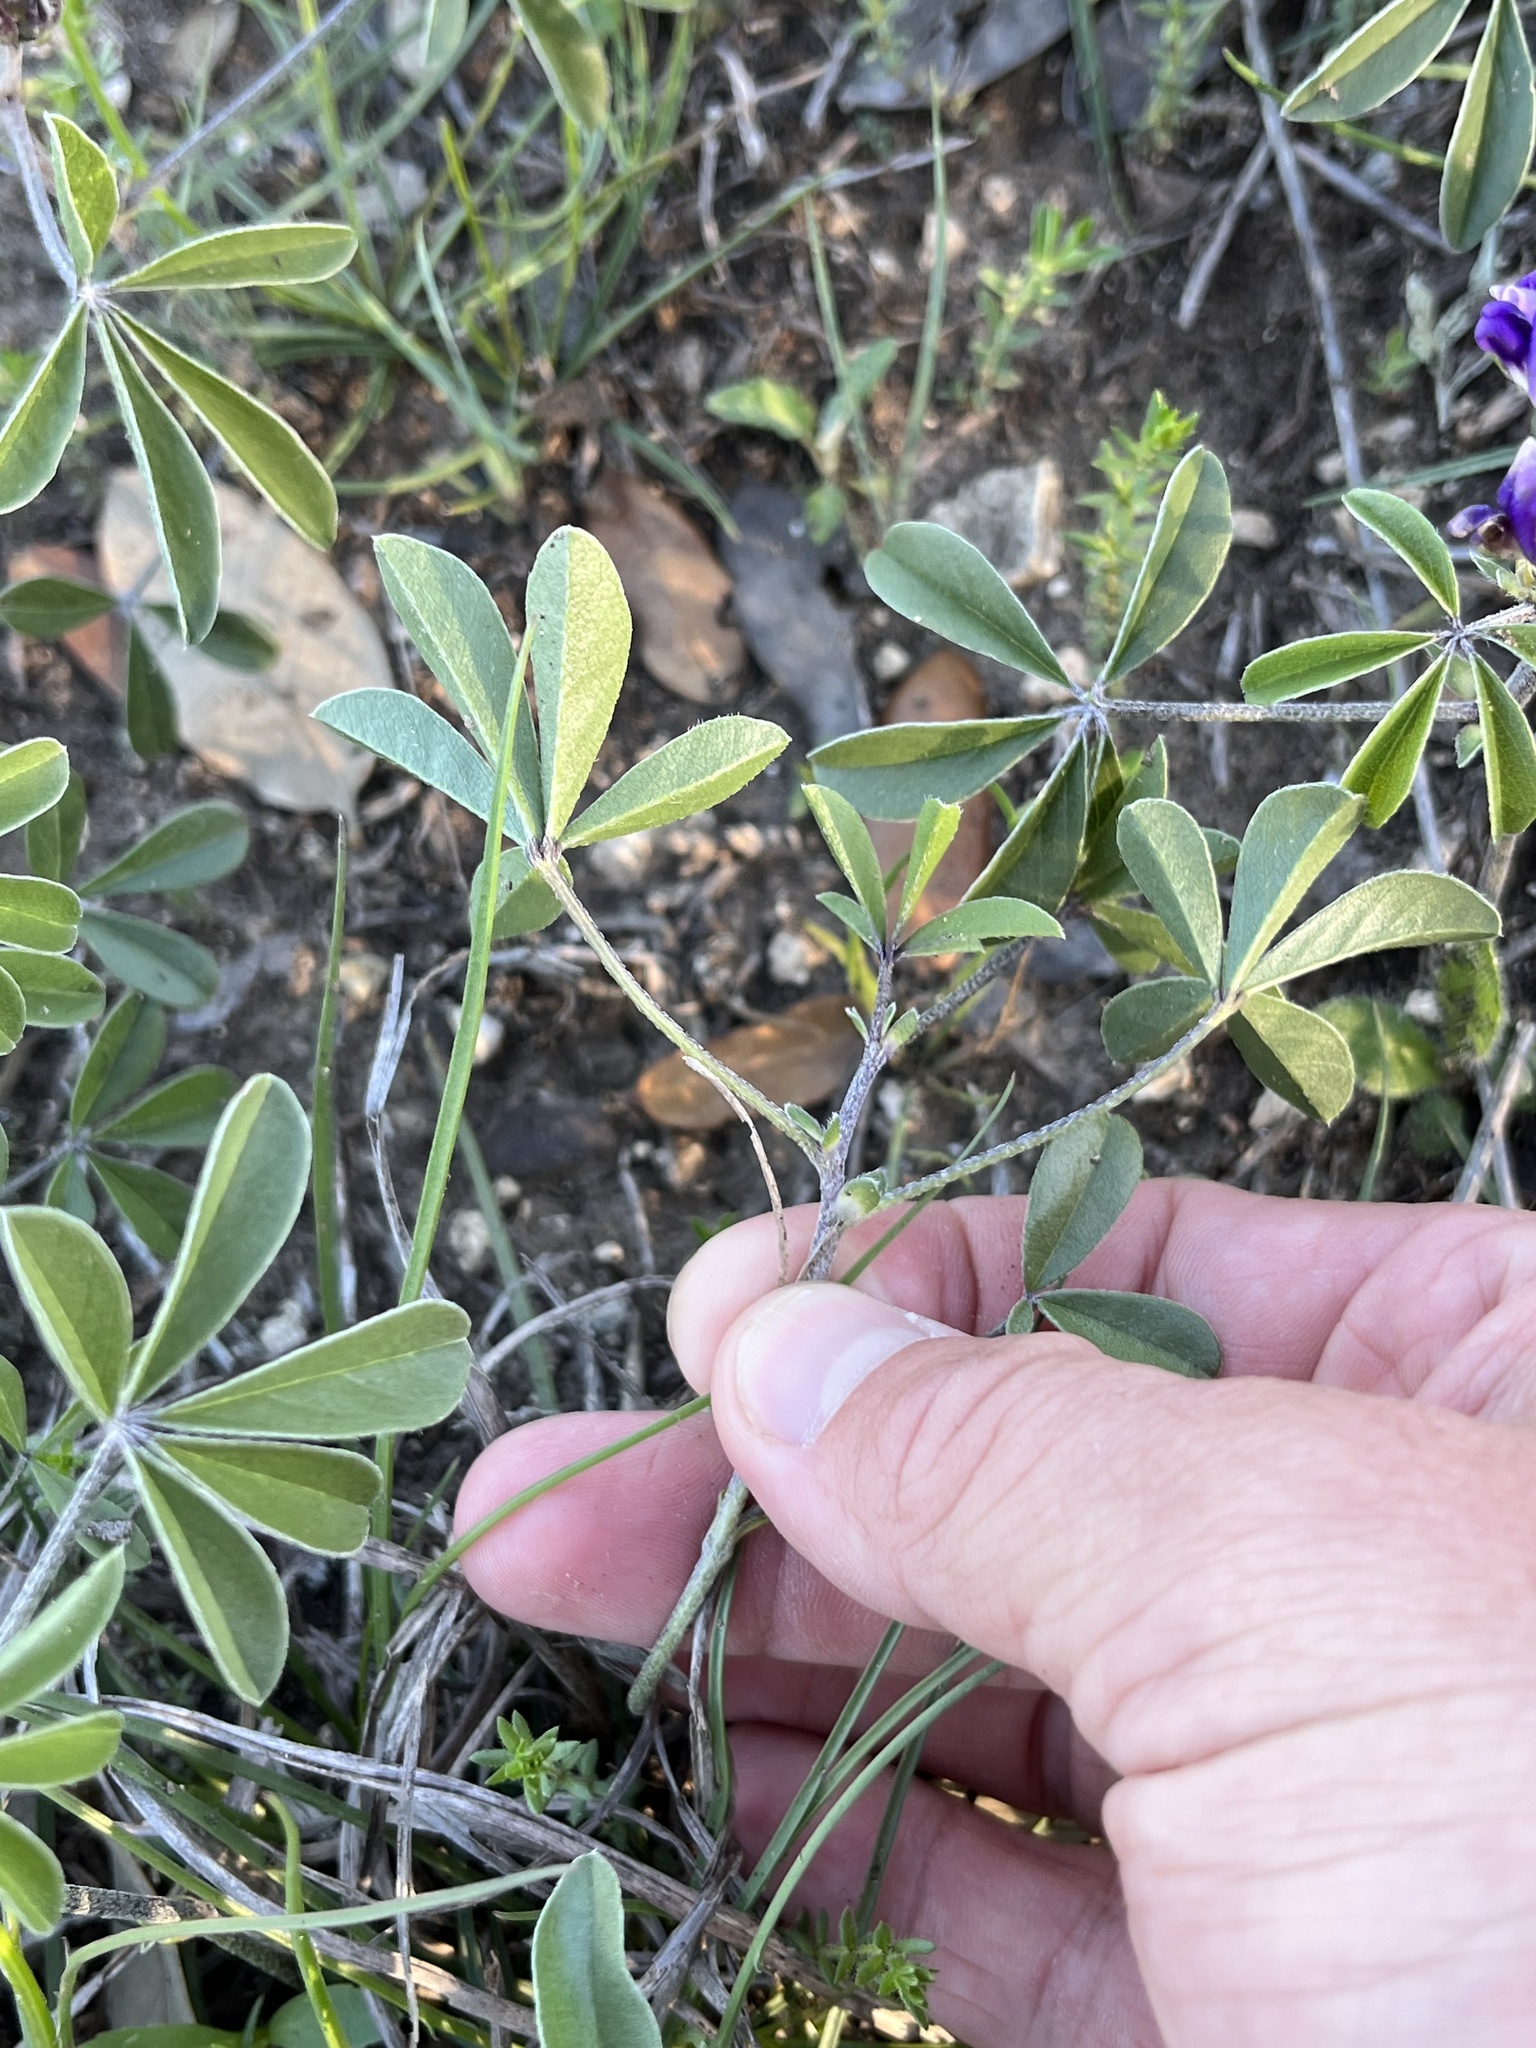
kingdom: Plantae
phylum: Tracheophyta
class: Magnoliopsida
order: Fabales
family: Fabaceae
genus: Pediomelum
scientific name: Pediomelum latestipulatum
